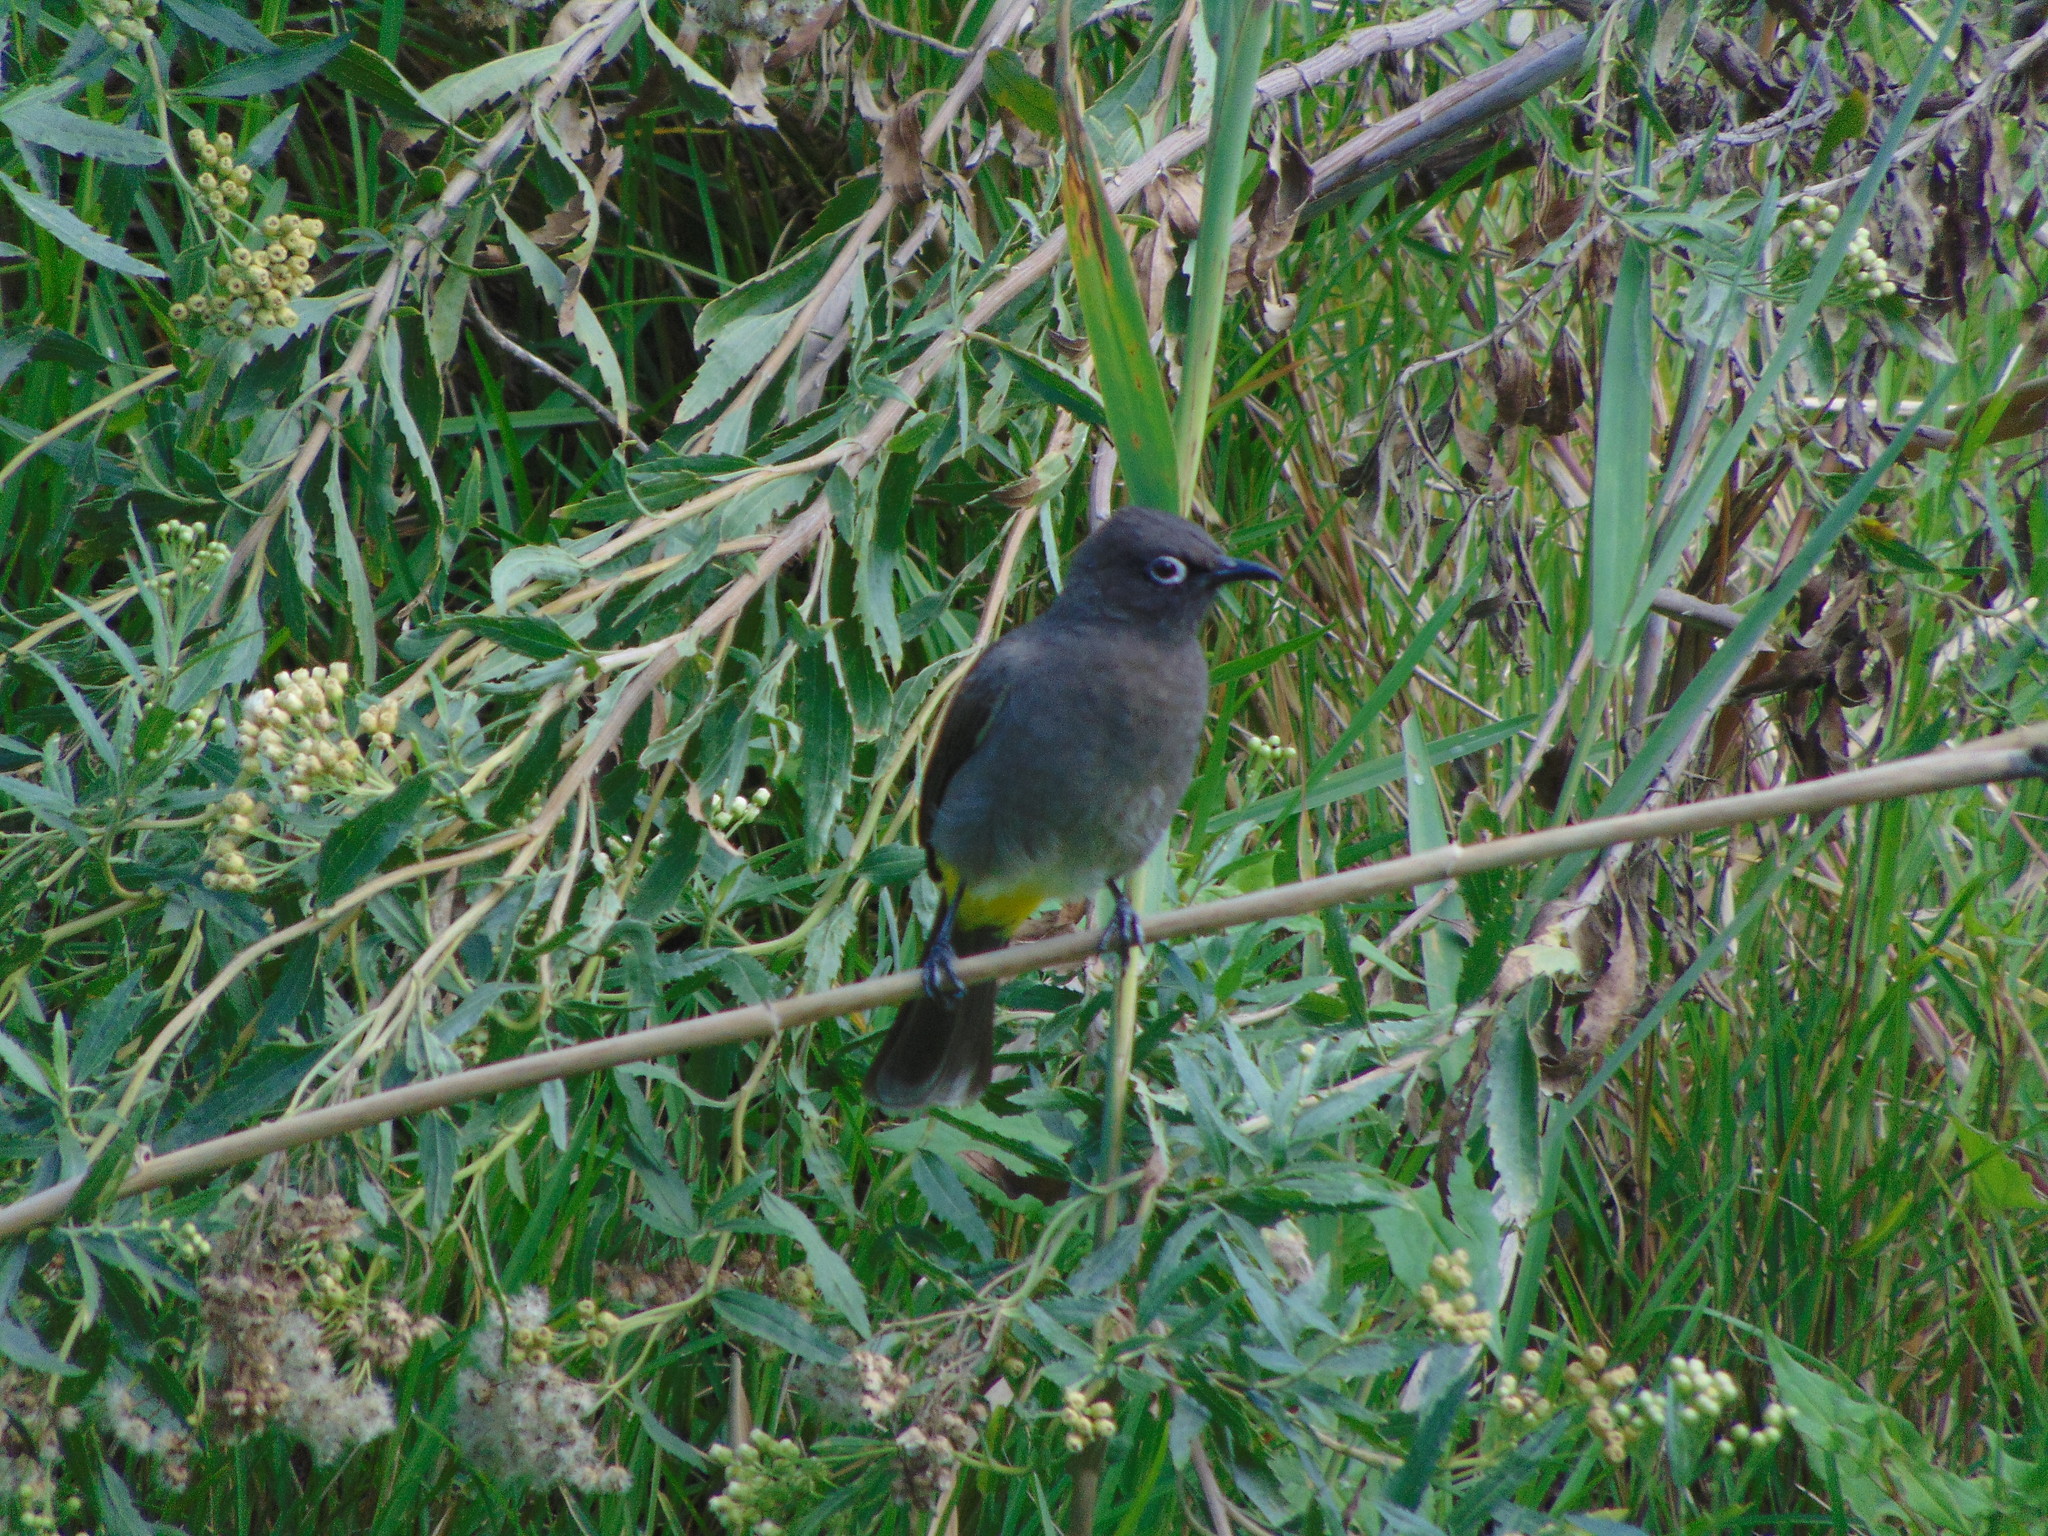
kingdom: Animalia
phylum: Chordata
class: Aves
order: Passeriformes
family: Pycnonotidae
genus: Pycnonotus
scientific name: Pycnonotus capensis
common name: Cape bulbul
